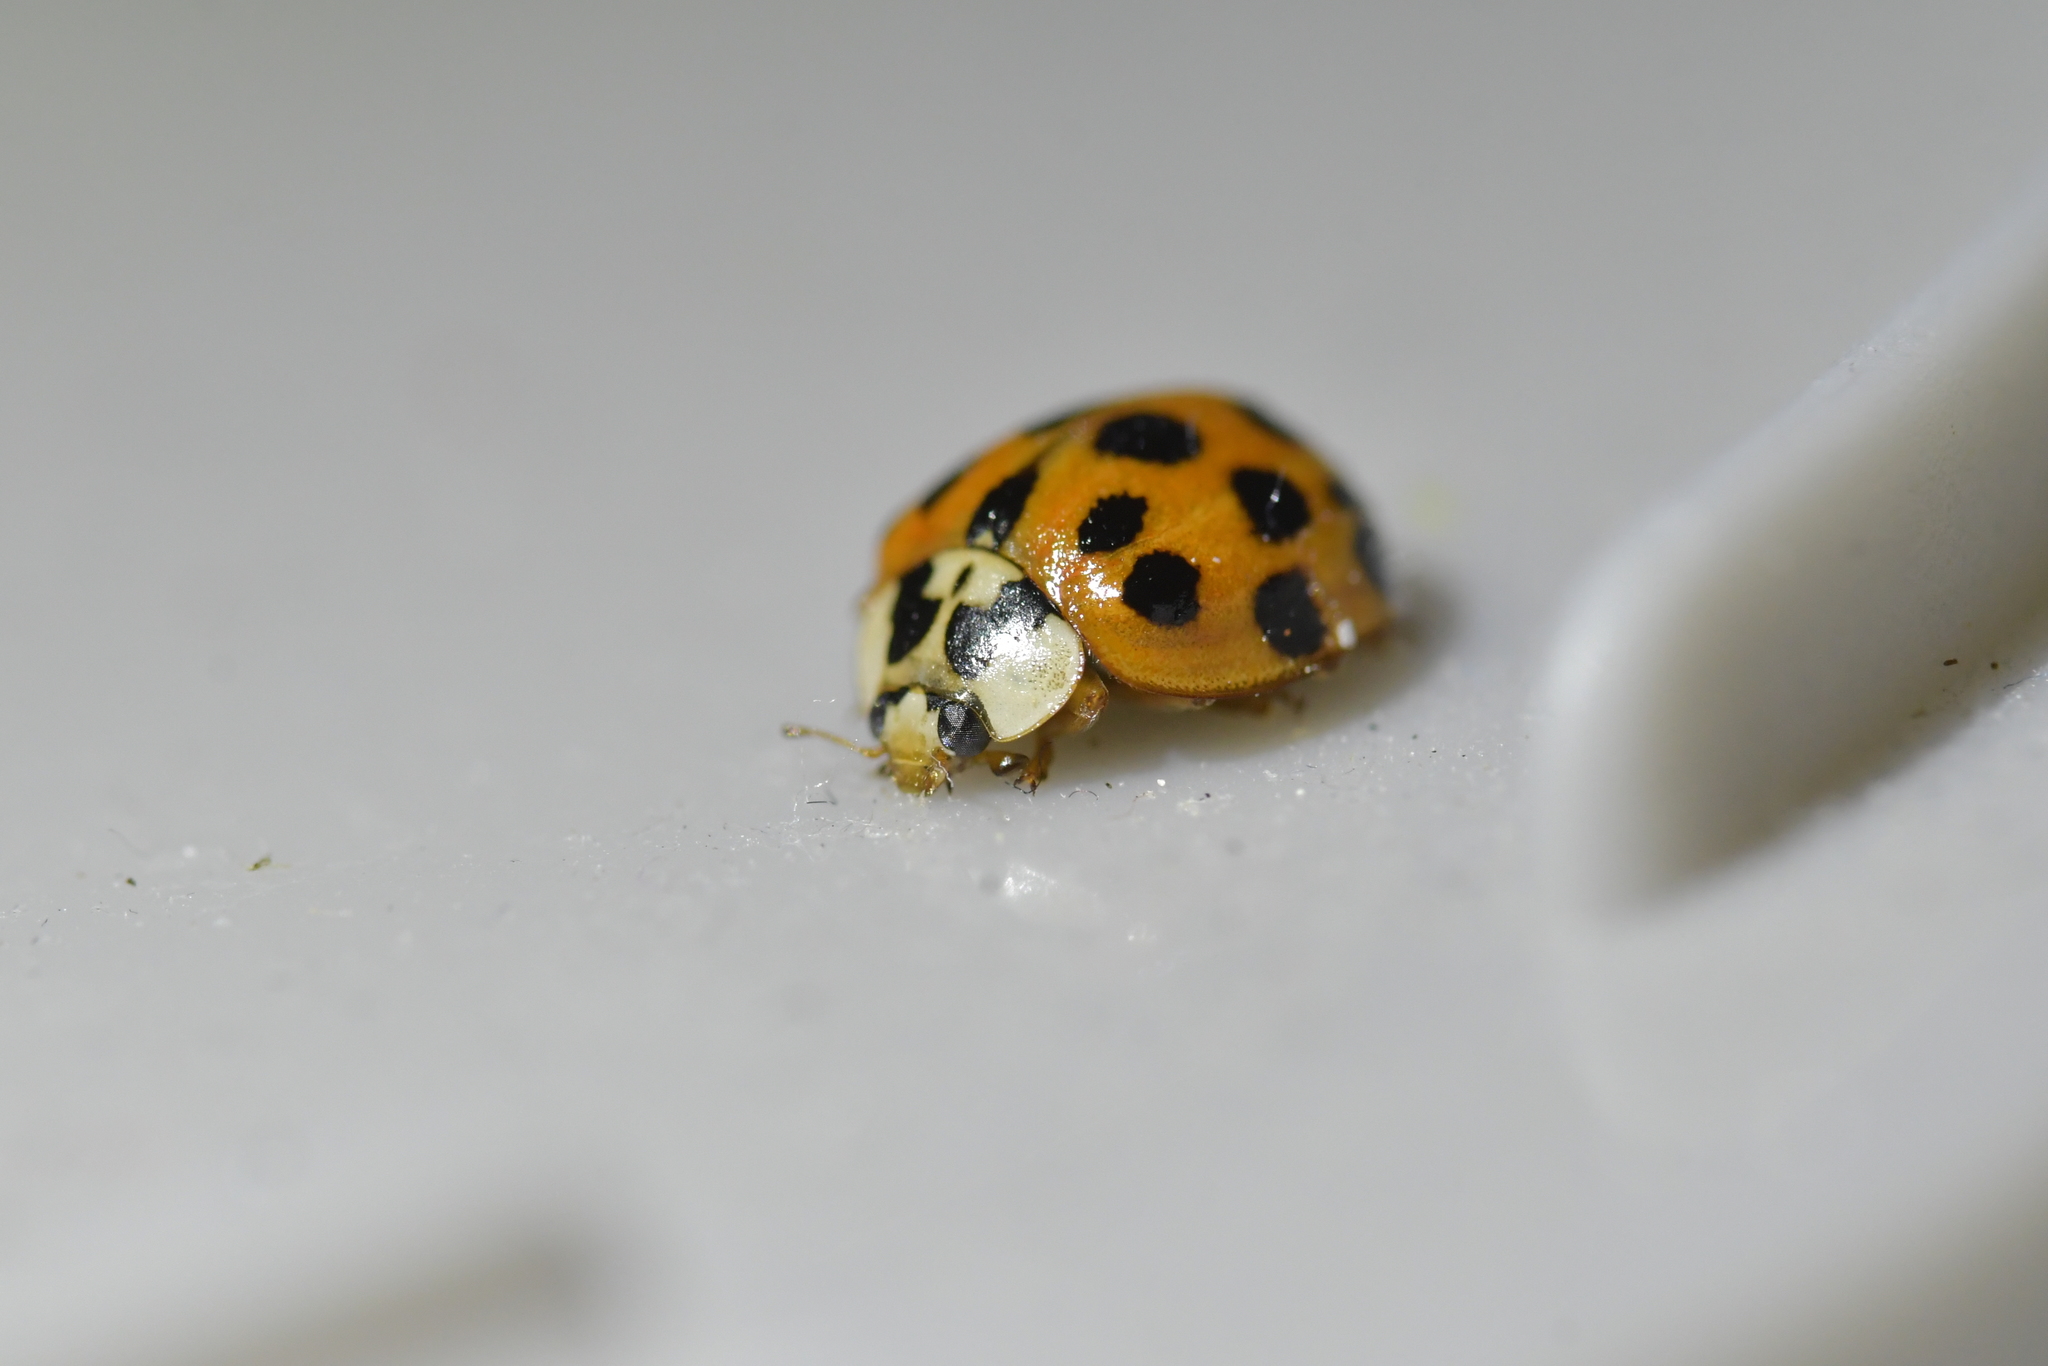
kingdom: Animalia
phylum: Arthropoda
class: Insecta
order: Coleoptera
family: Coccinellidae
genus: Harmonia
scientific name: Harmonia axyridis
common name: Harlequin ladybird
